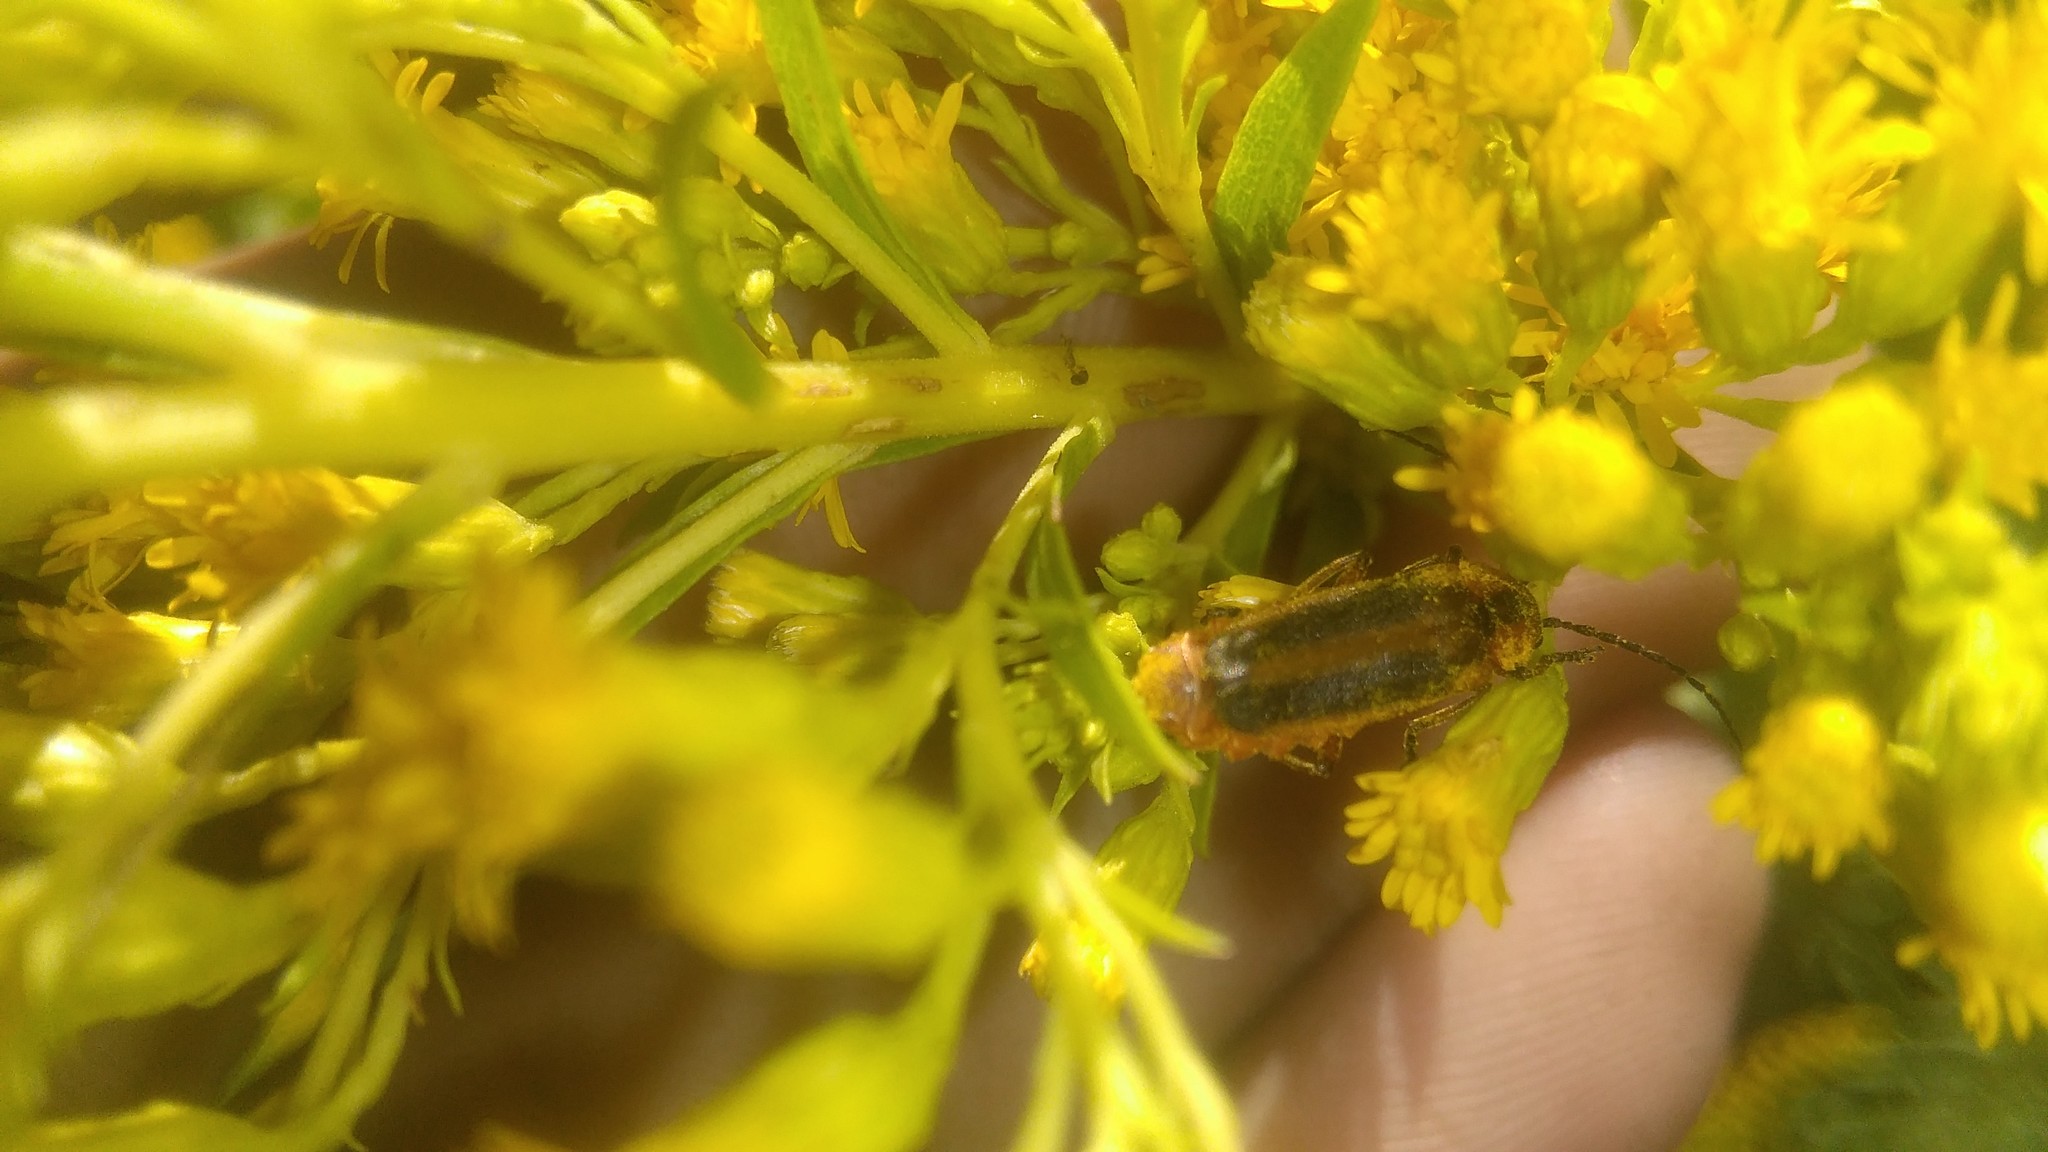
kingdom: Animalia
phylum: Arthropoda
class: Insecta
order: Coleoptera
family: Cantharidae
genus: Discodon
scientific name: Discodon
